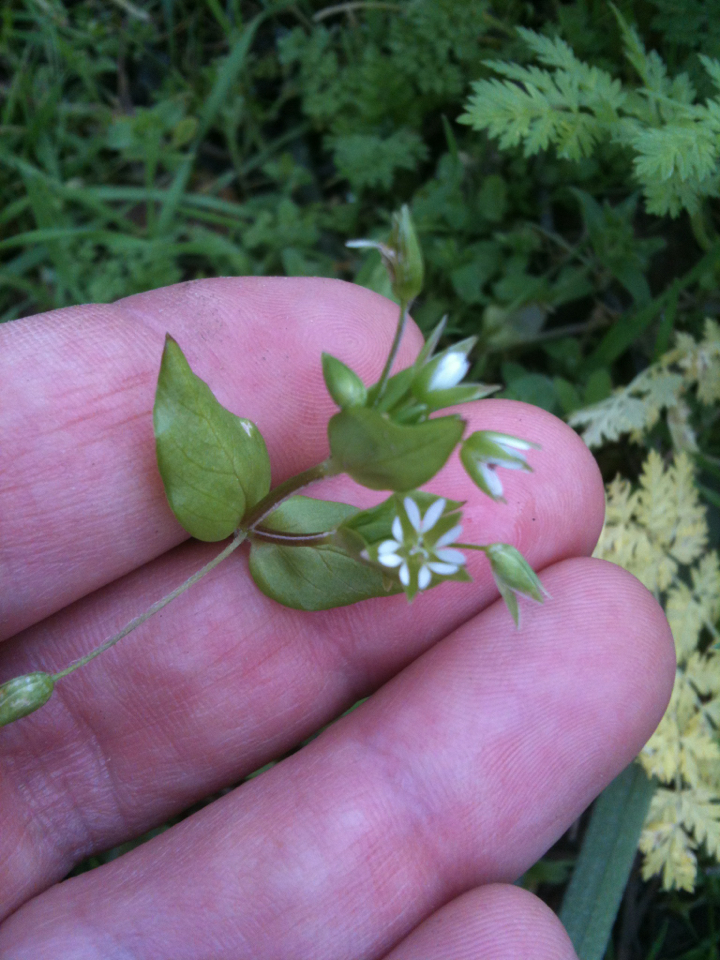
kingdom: Plantae
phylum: Tracheophyta
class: Magnoliopsida
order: Caryophyllales
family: Caryophyllaceae
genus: Stellaria
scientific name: Stellaria media
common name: Common chickweed
